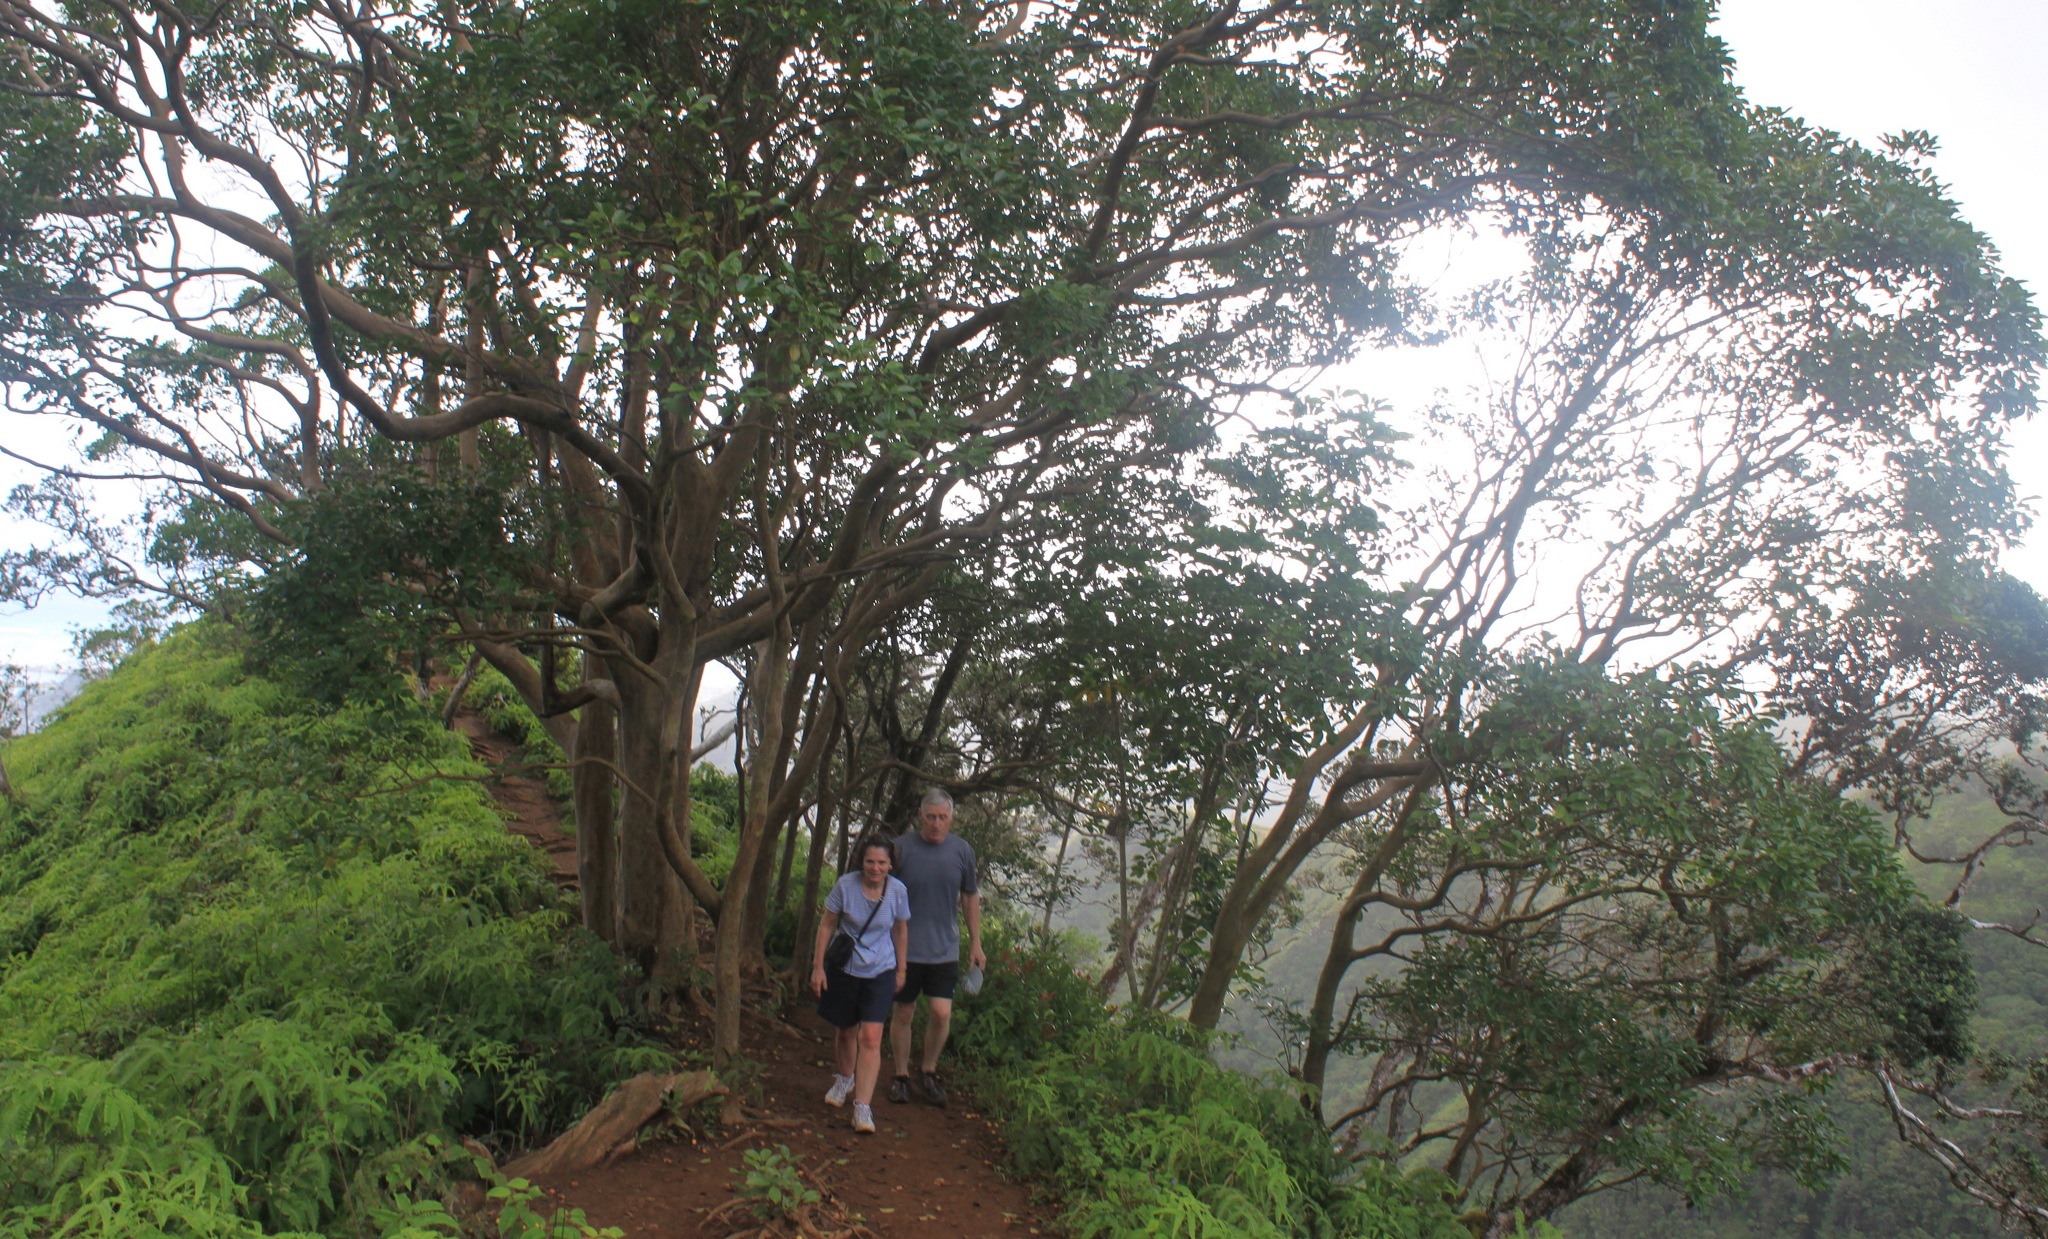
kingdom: Plantae
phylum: Tracheophyta
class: Magnoliopsida
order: Myrtales
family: Myrtaceae
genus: Psidium
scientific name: Psidium cattleianum
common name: Strawberry guava
